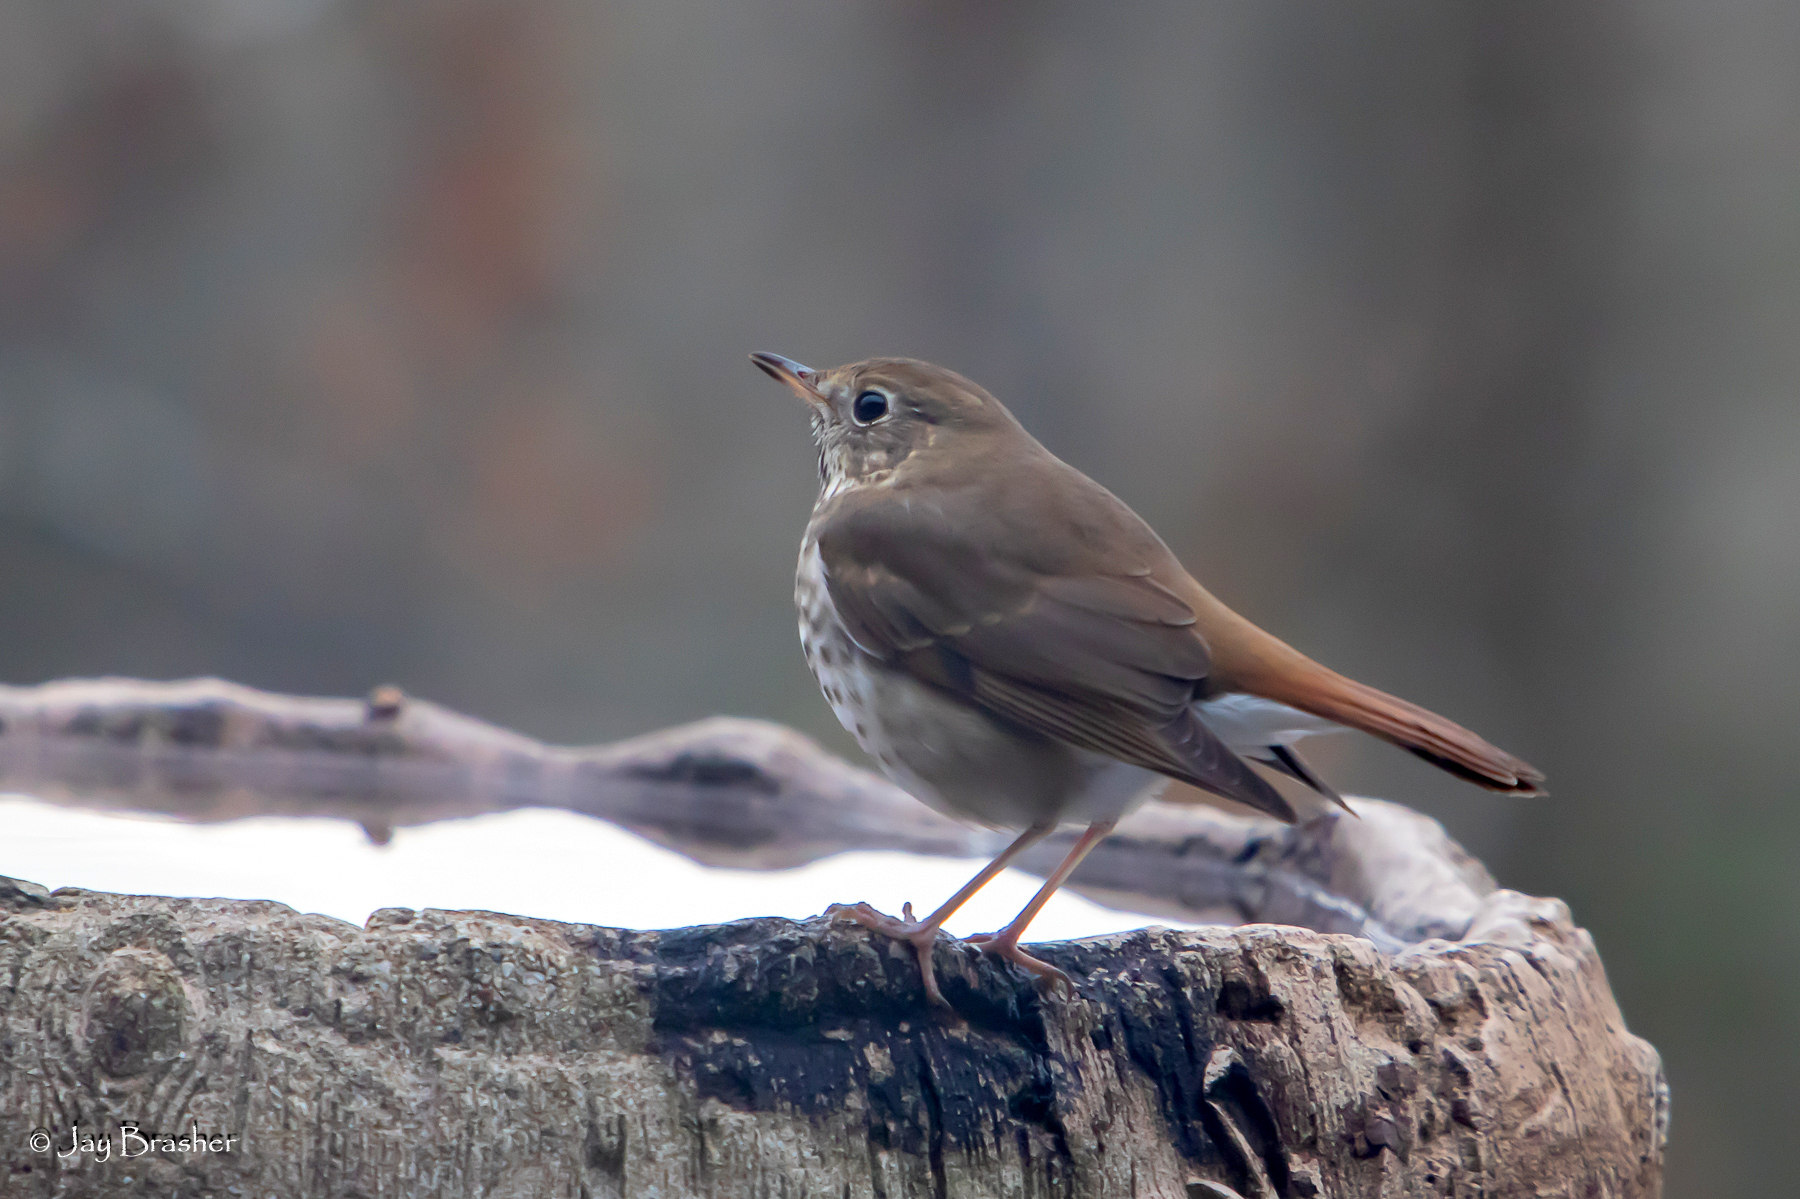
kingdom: Animalia
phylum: Chordata
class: Aves
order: Passeriformes
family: Turdidae
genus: Catharus
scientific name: Catharus guttatus
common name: Hermit thrush
